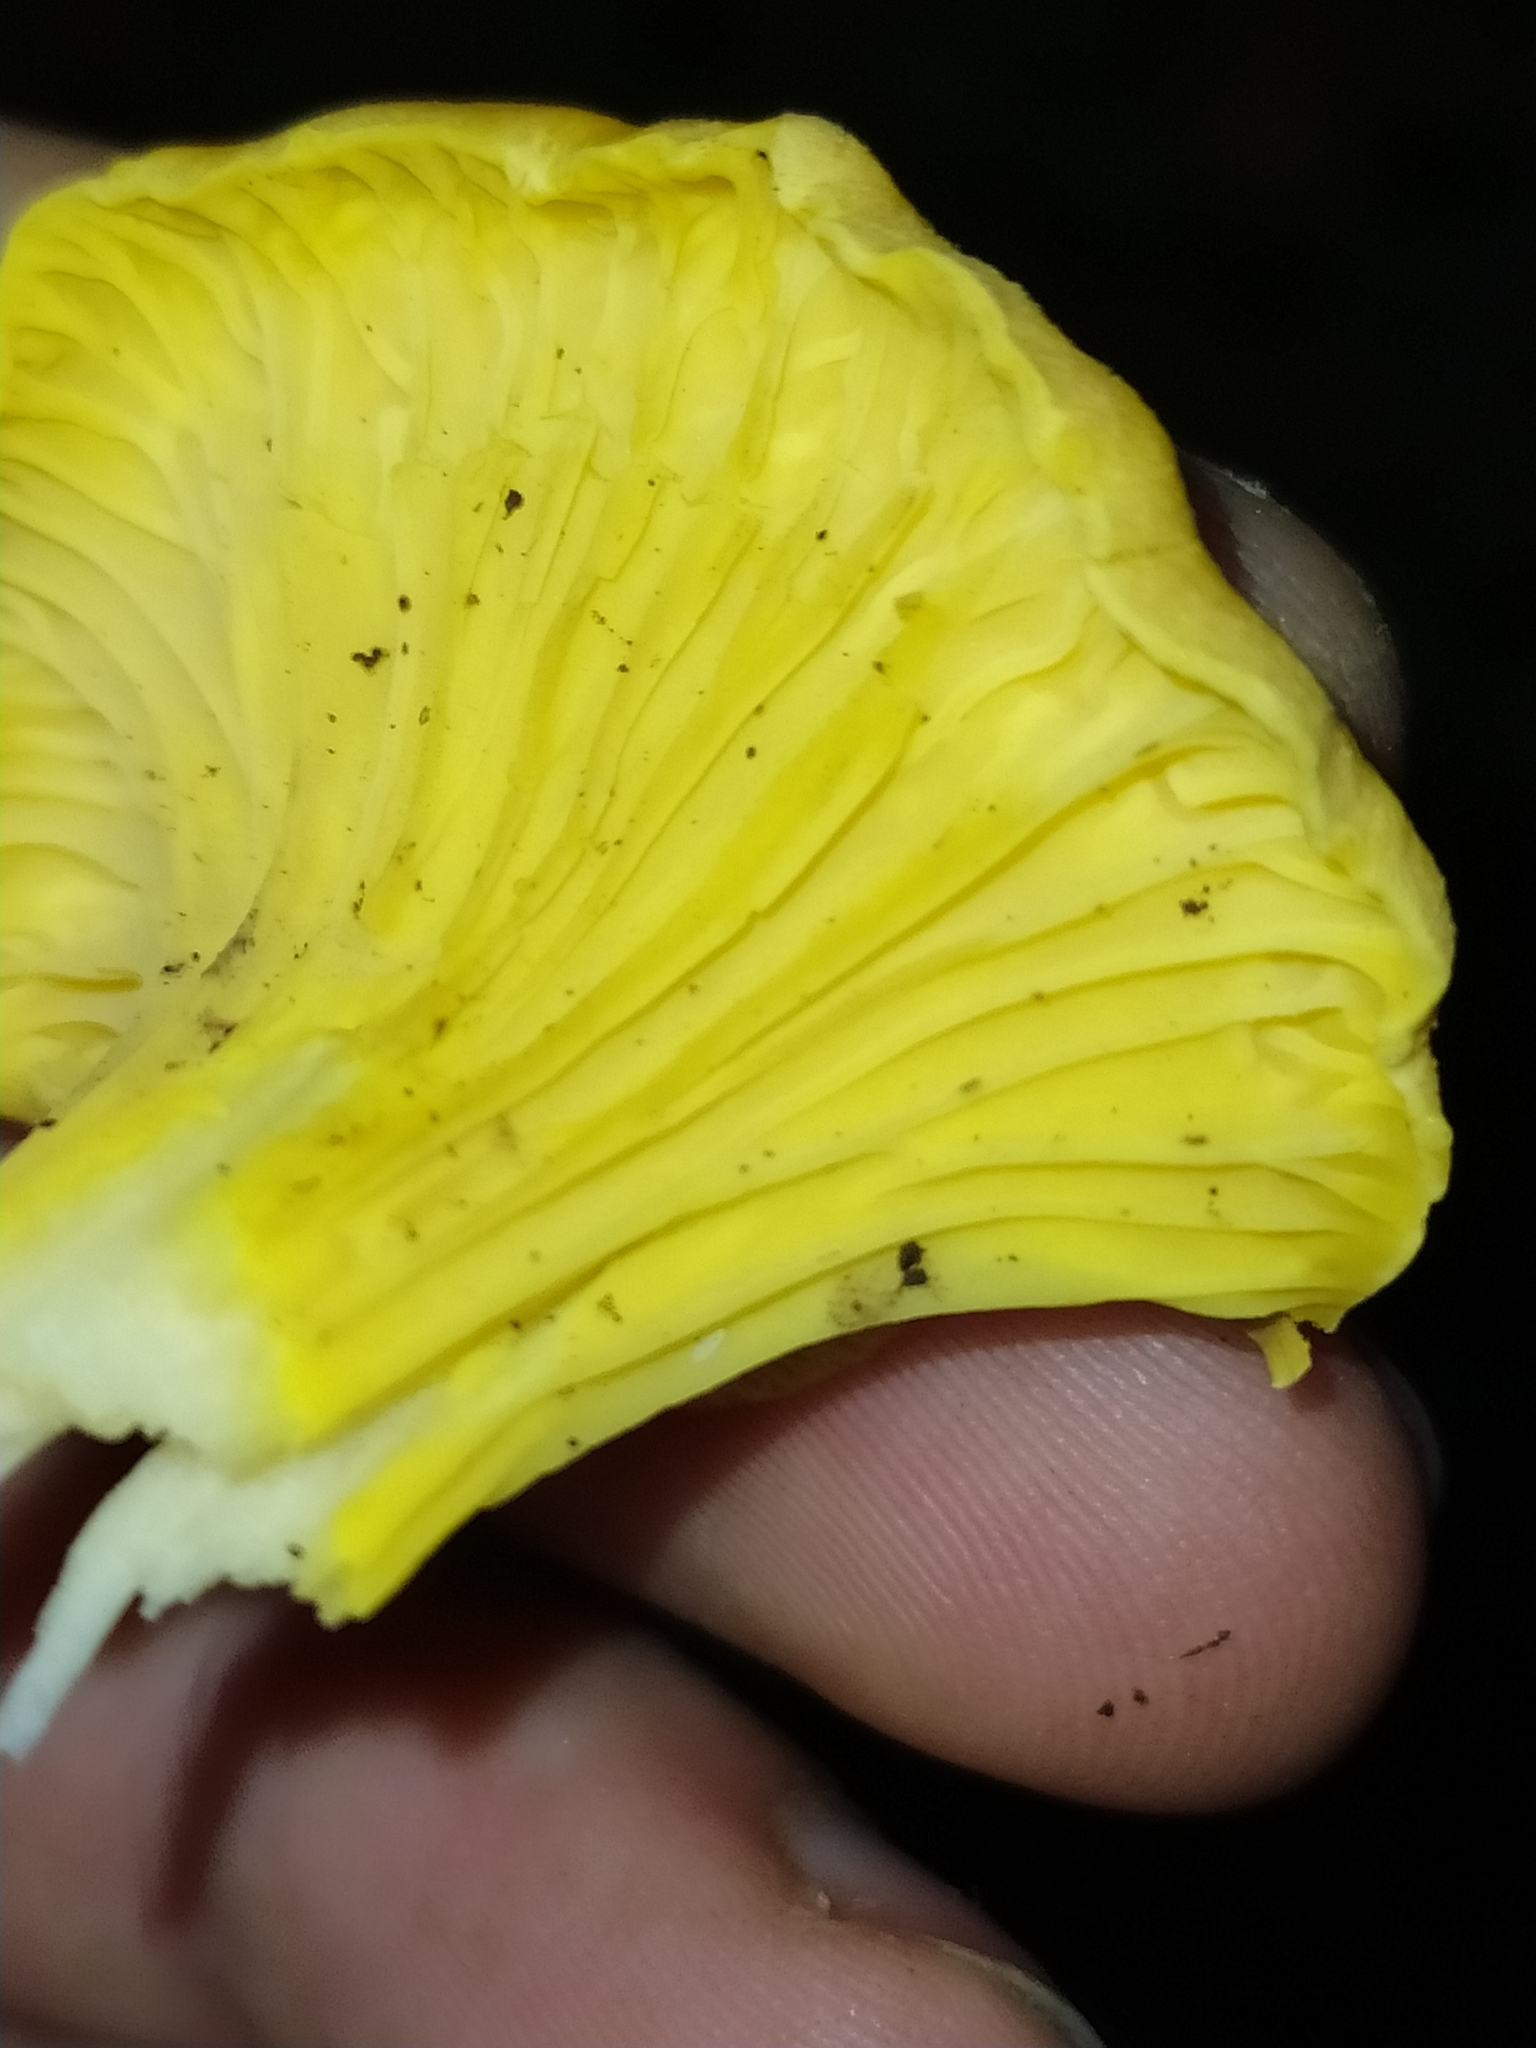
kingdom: Fungi
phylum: Basidiomycota
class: Agaricomycetes
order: Cantharellales
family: Hydnaceae
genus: Cantharellus
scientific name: Cantharellus cibarius
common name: Chanterelle
